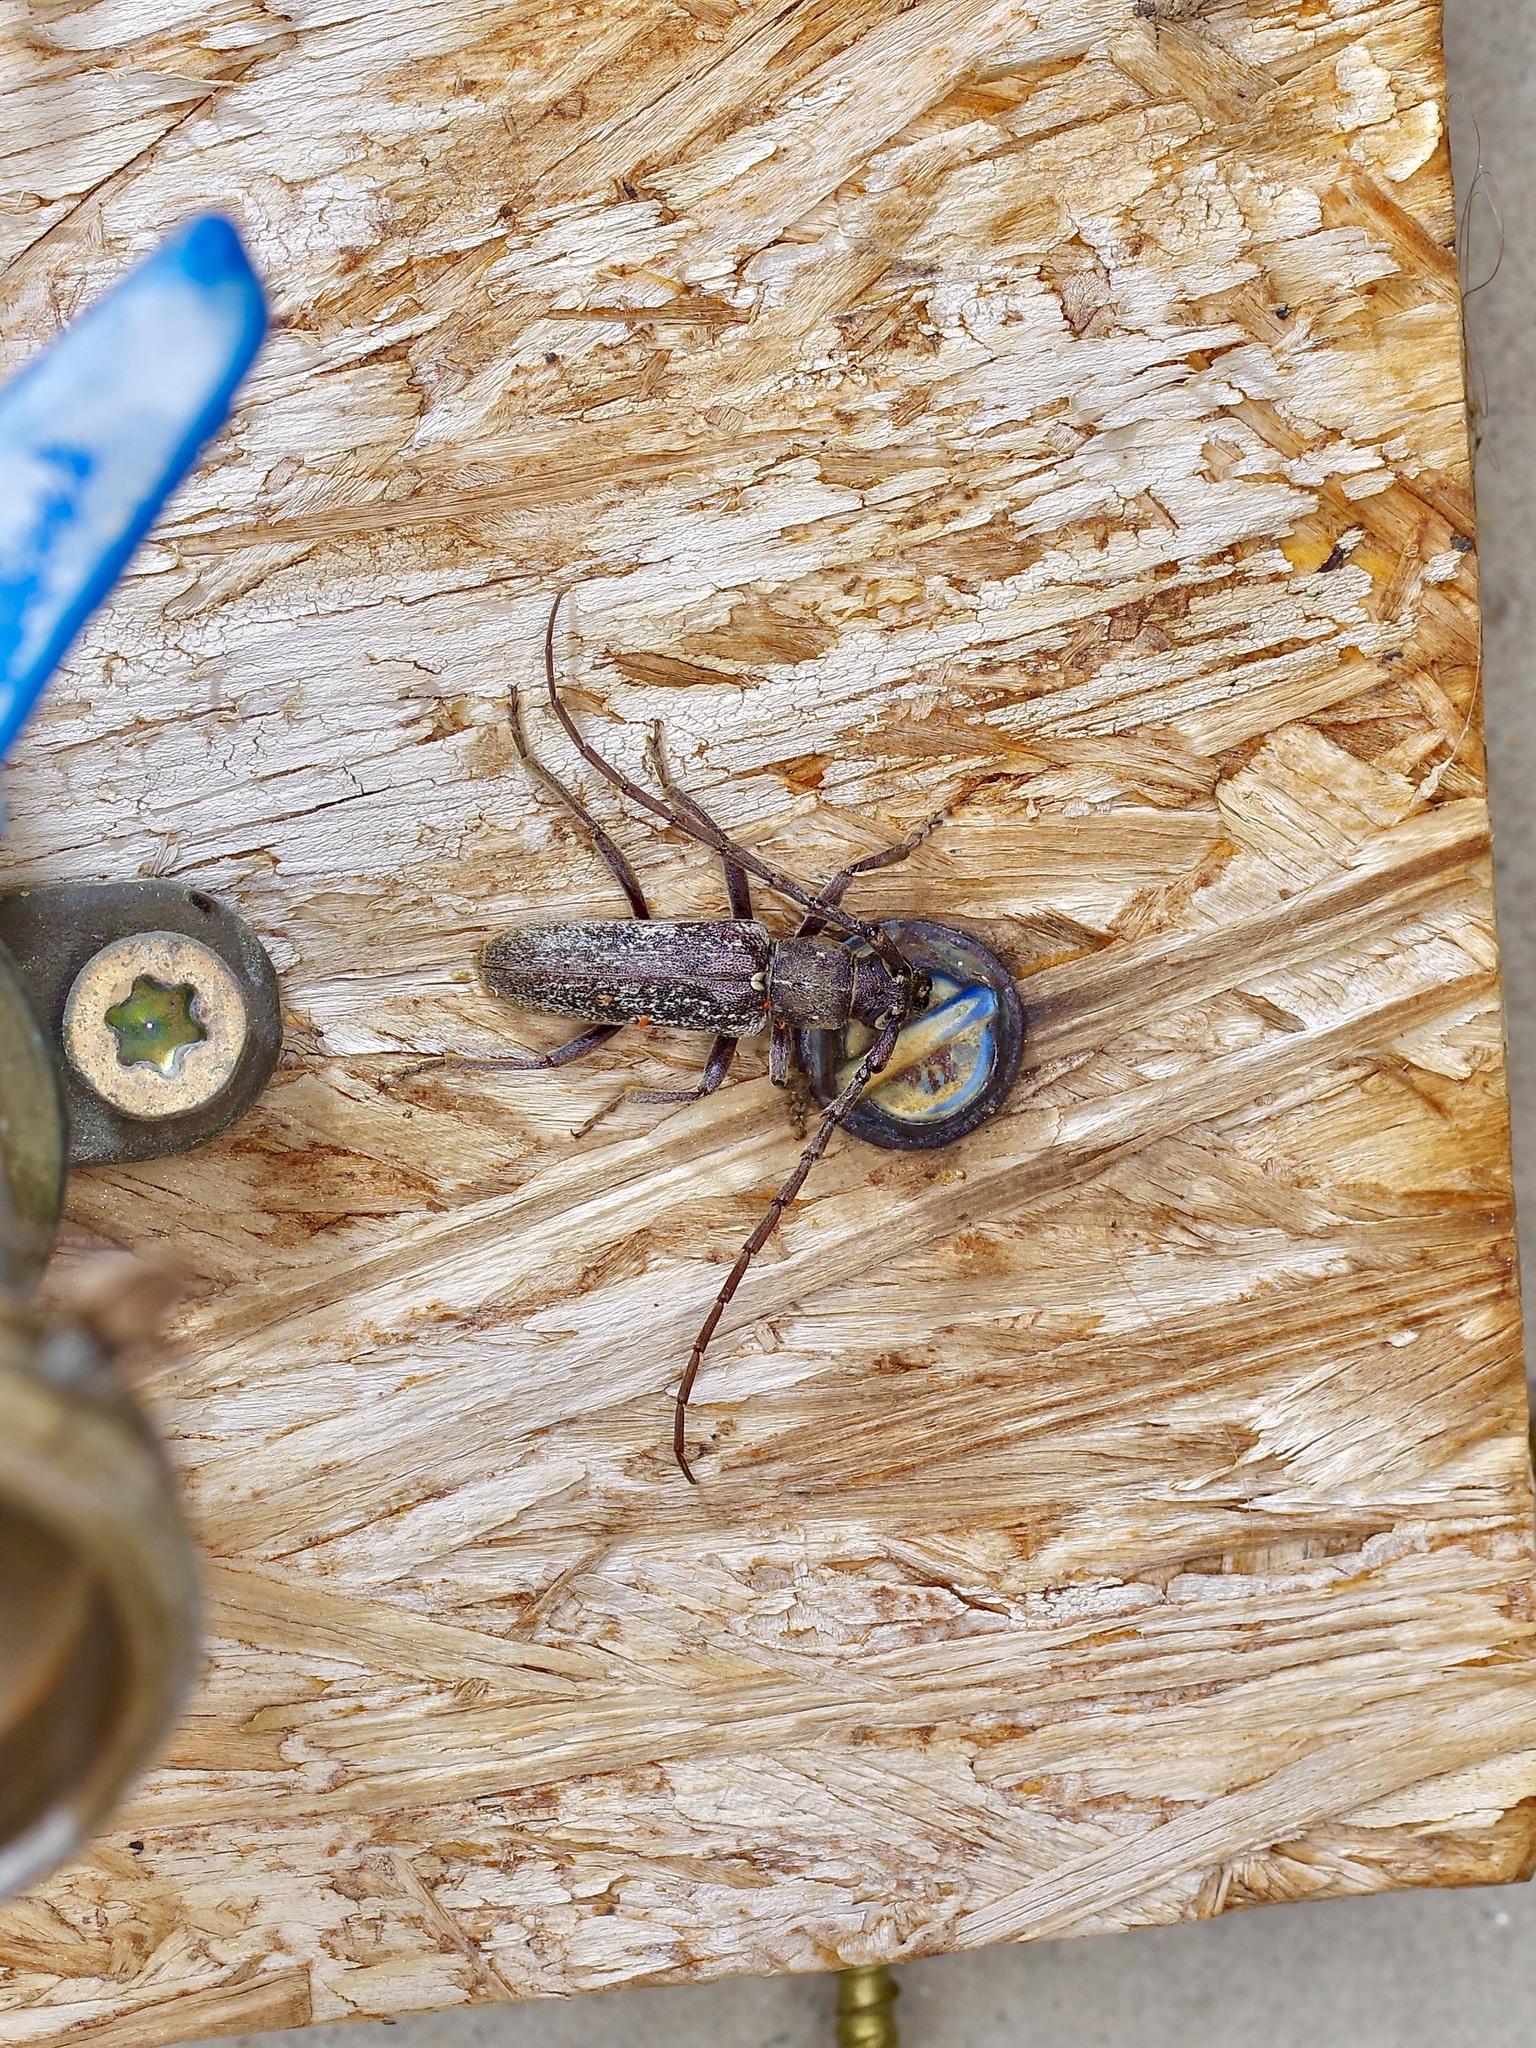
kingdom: Animalia
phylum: Arthropoda
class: Insecta
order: Coleoptera
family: Cerambycidae
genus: Anelaphus
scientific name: Anelaphus subinermis
